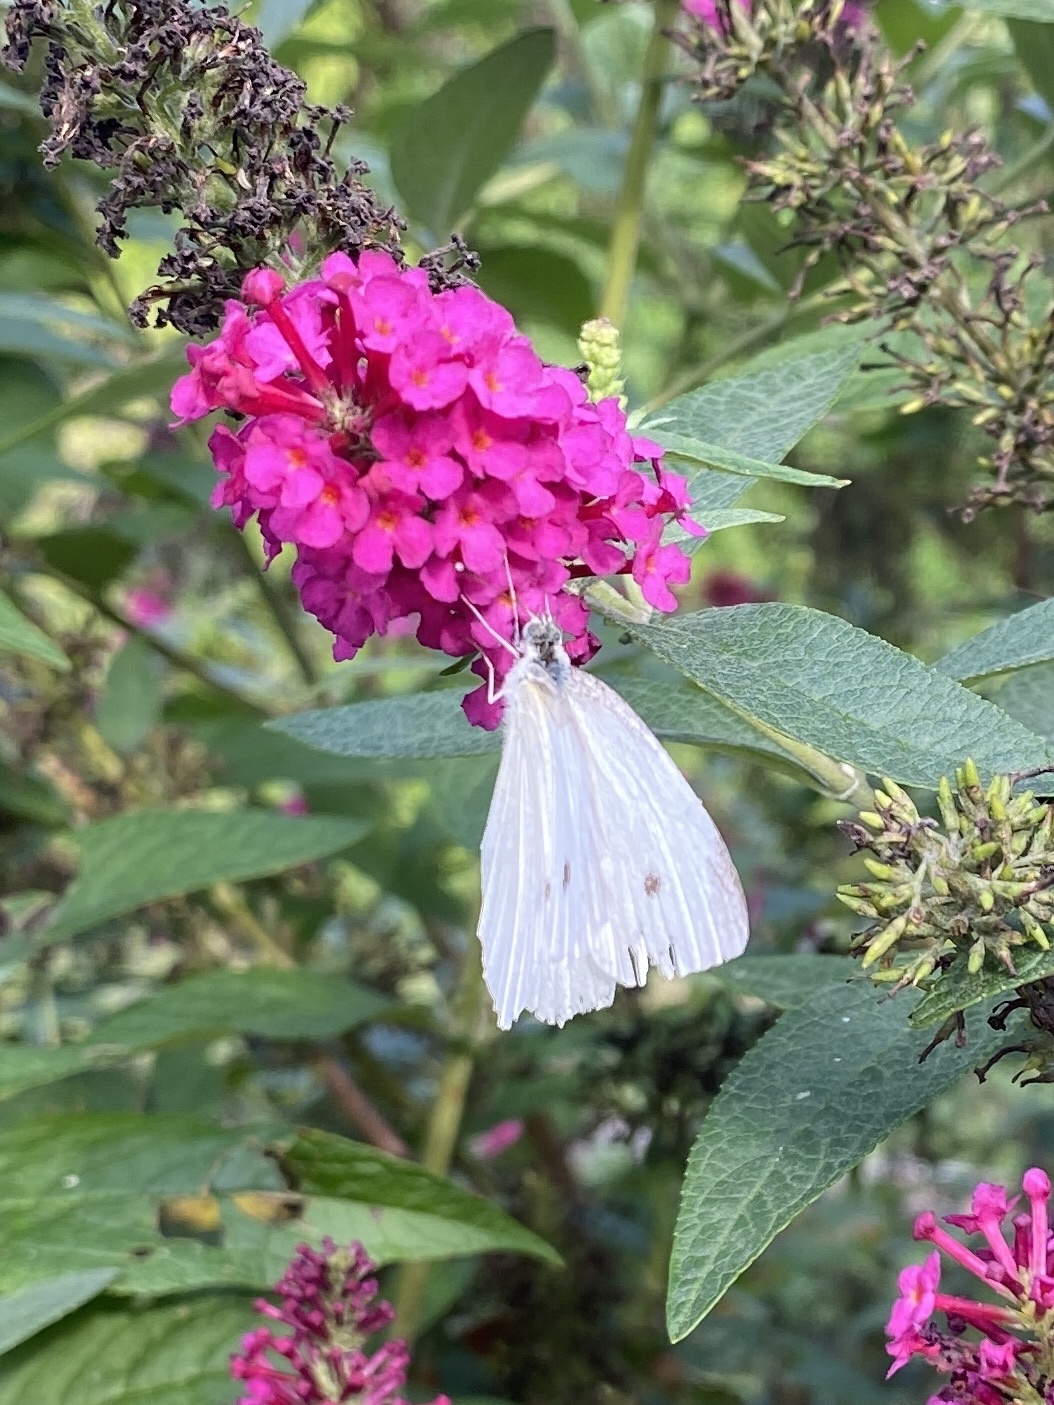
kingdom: Animalia
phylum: Arthropoda
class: Insecta
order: Lepidoptera
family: Pieridae
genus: Pieris
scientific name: Pieris rapae
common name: Small white
